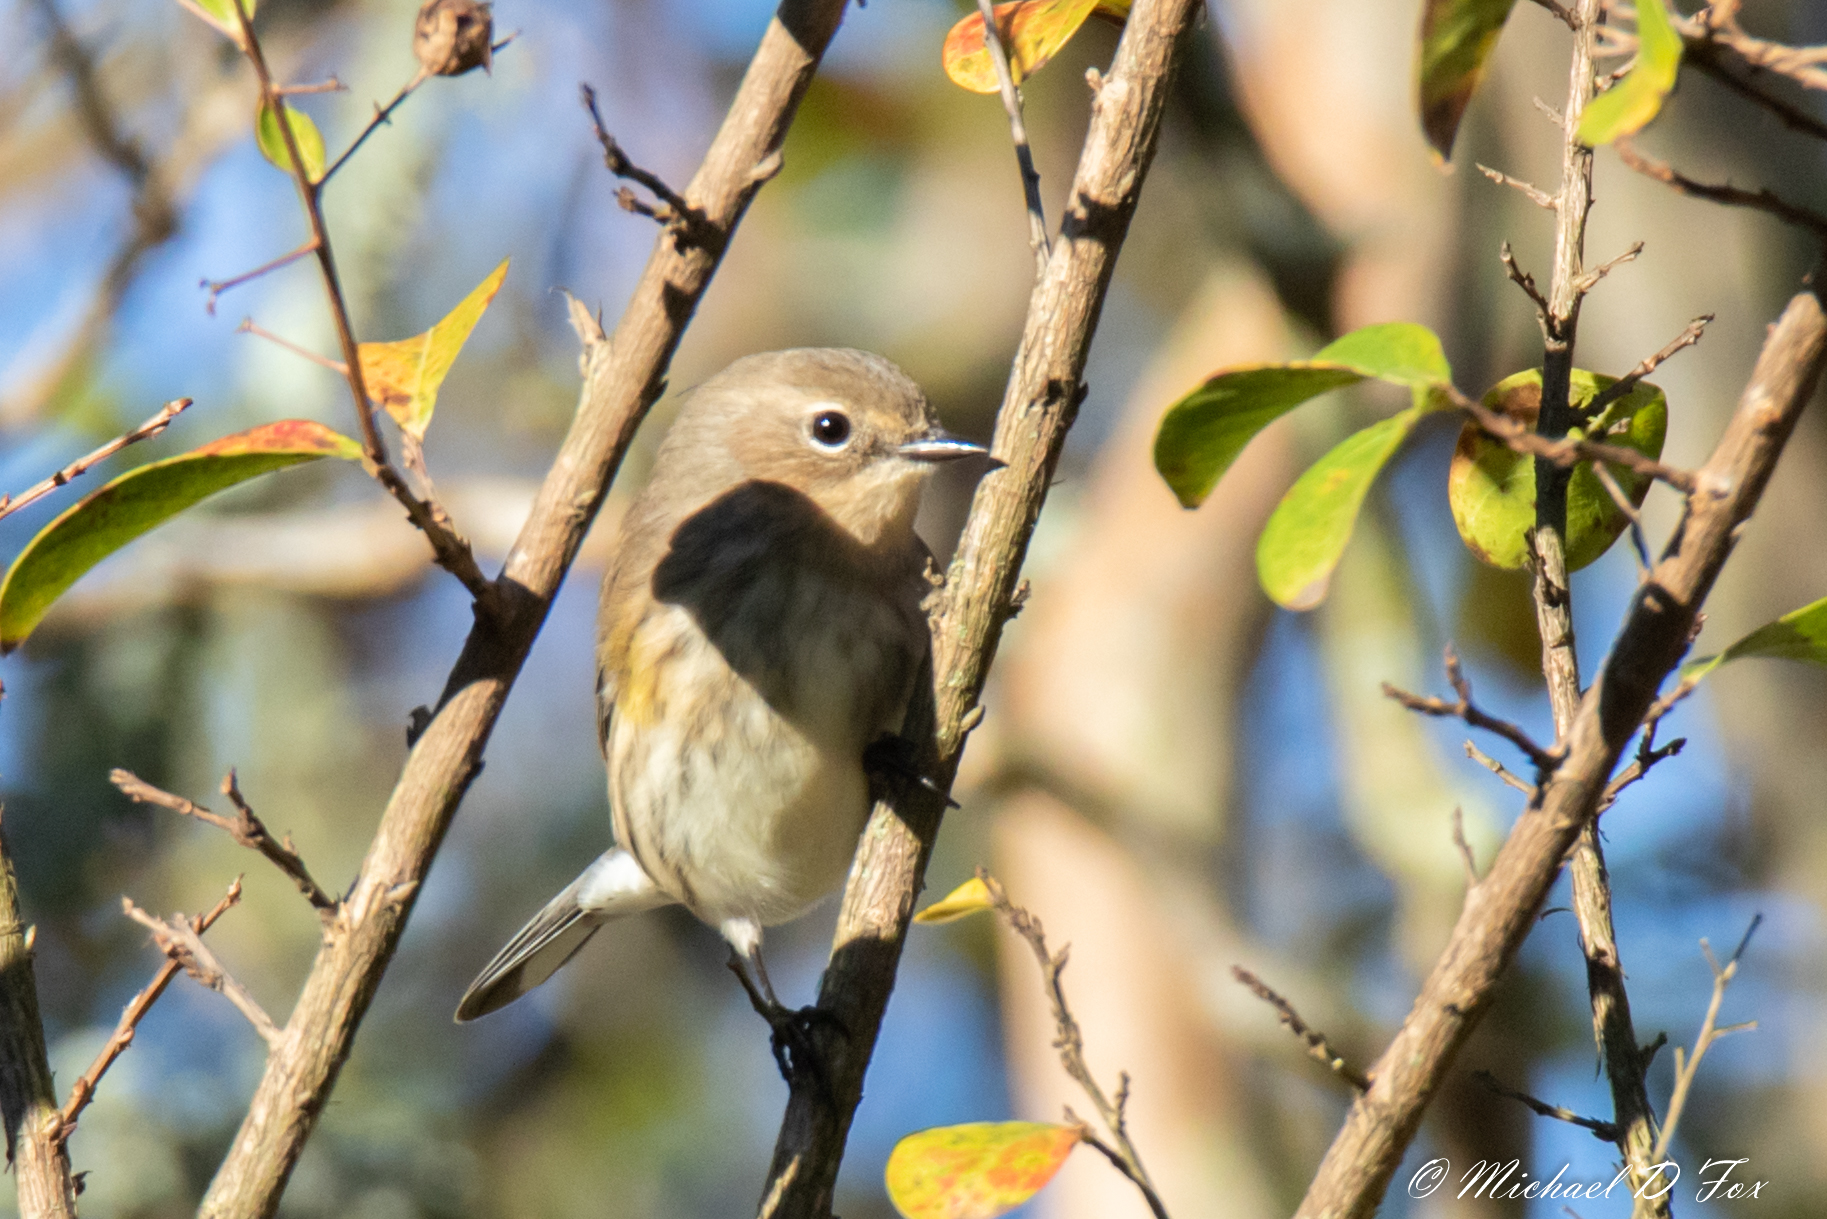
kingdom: Animalia
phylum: Chordata
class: Aves
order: Passeriformes
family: Parulidae
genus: Setophaga
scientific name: Setophaga coronata
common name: Myrtle warbler
